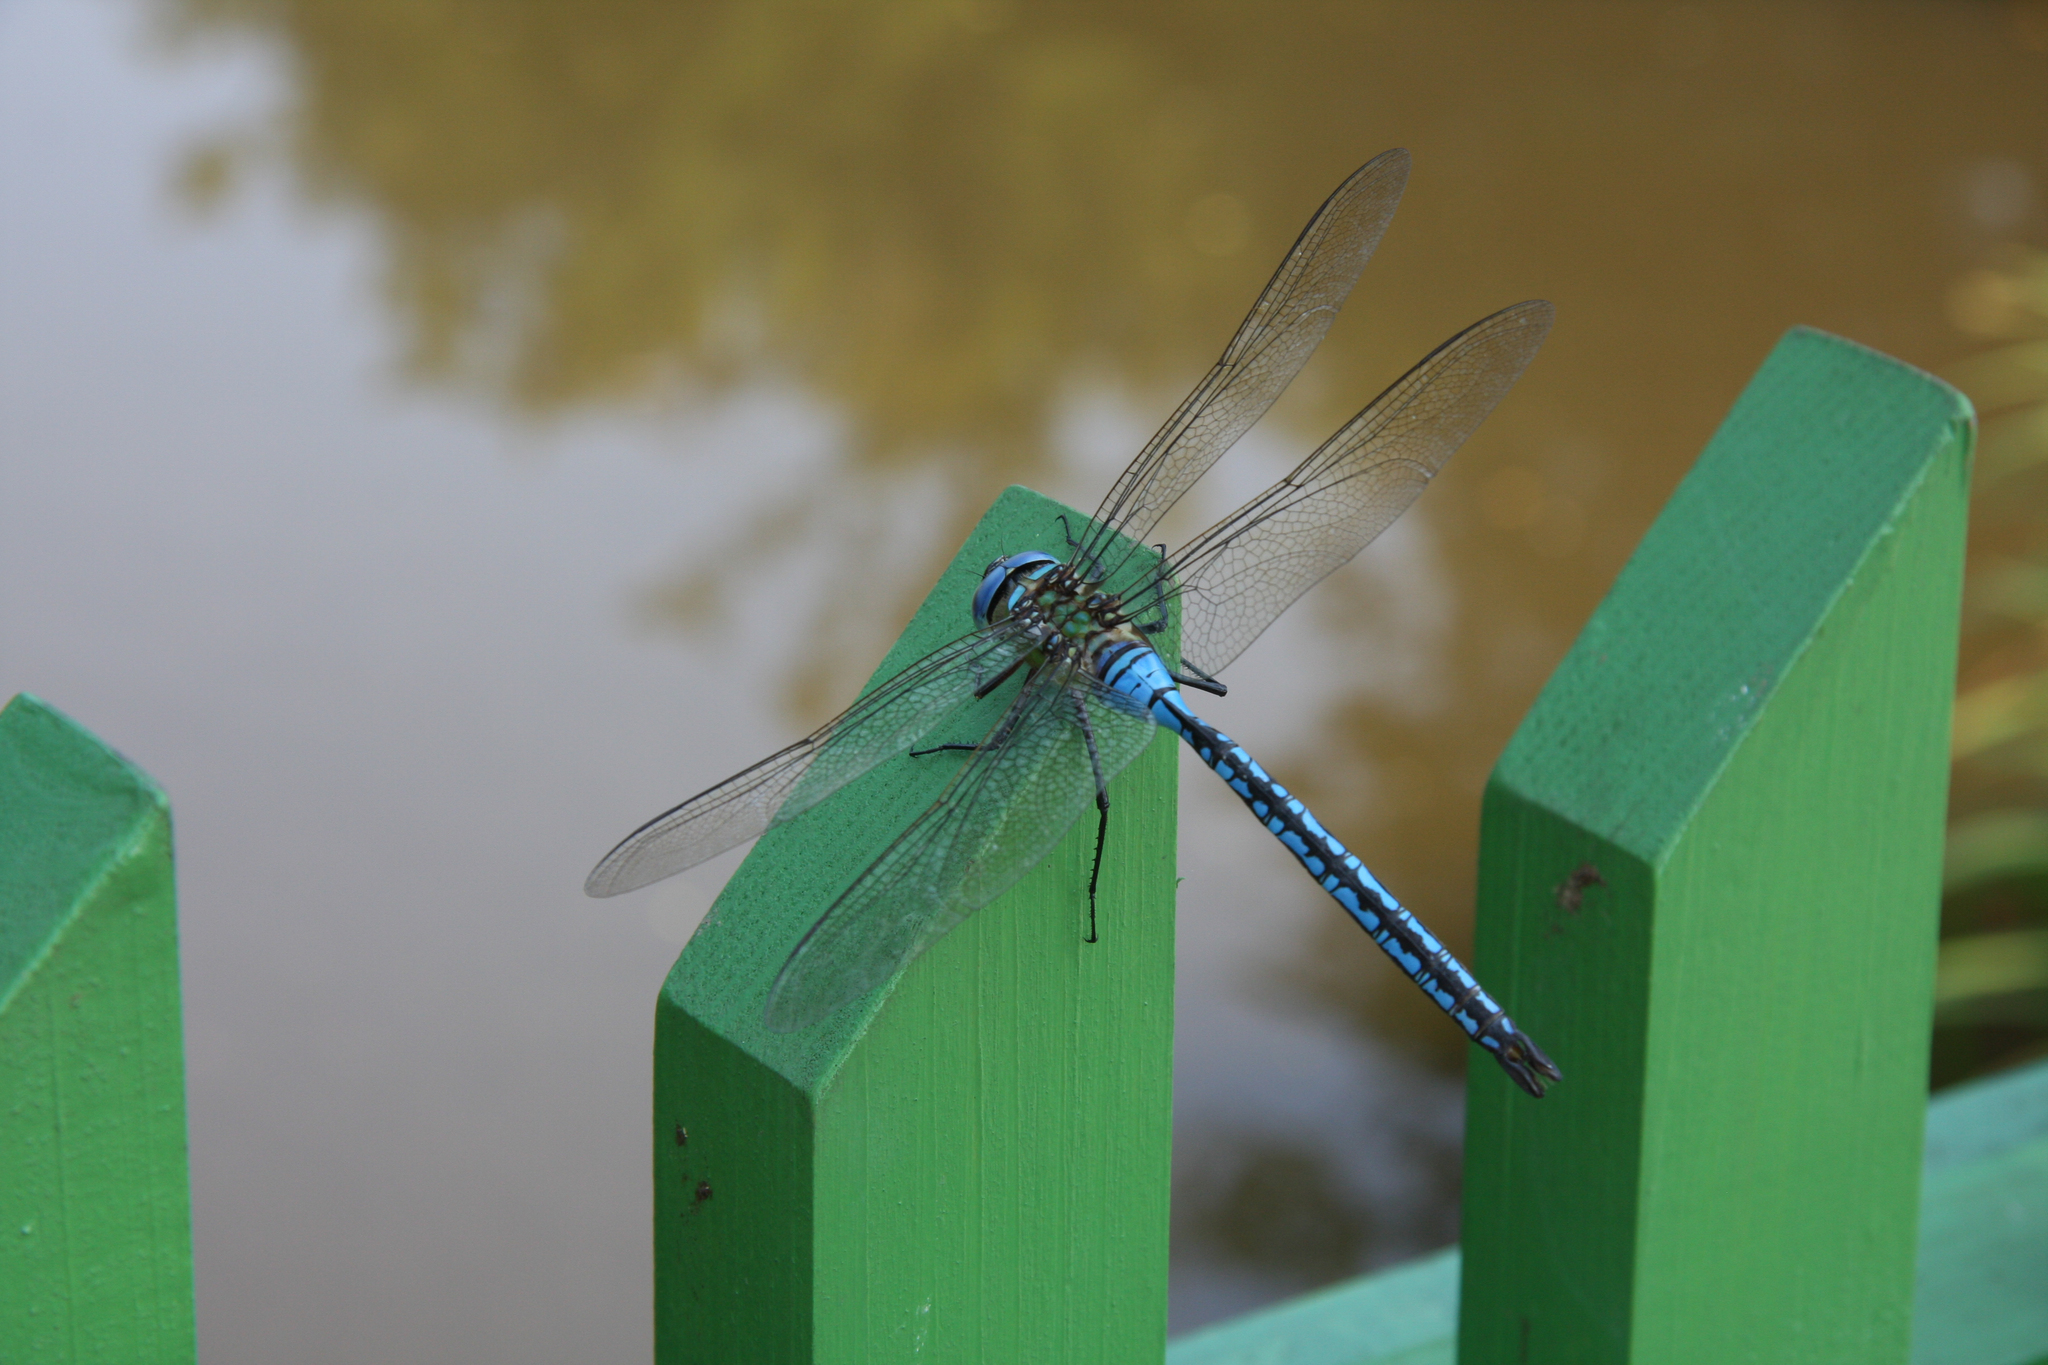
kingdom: Animalia
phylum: Arthropoda
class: Insecta
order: Odonata
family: Aeshnidae
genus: Anax
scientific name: Anax imperator
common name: Emperor dragonfly
